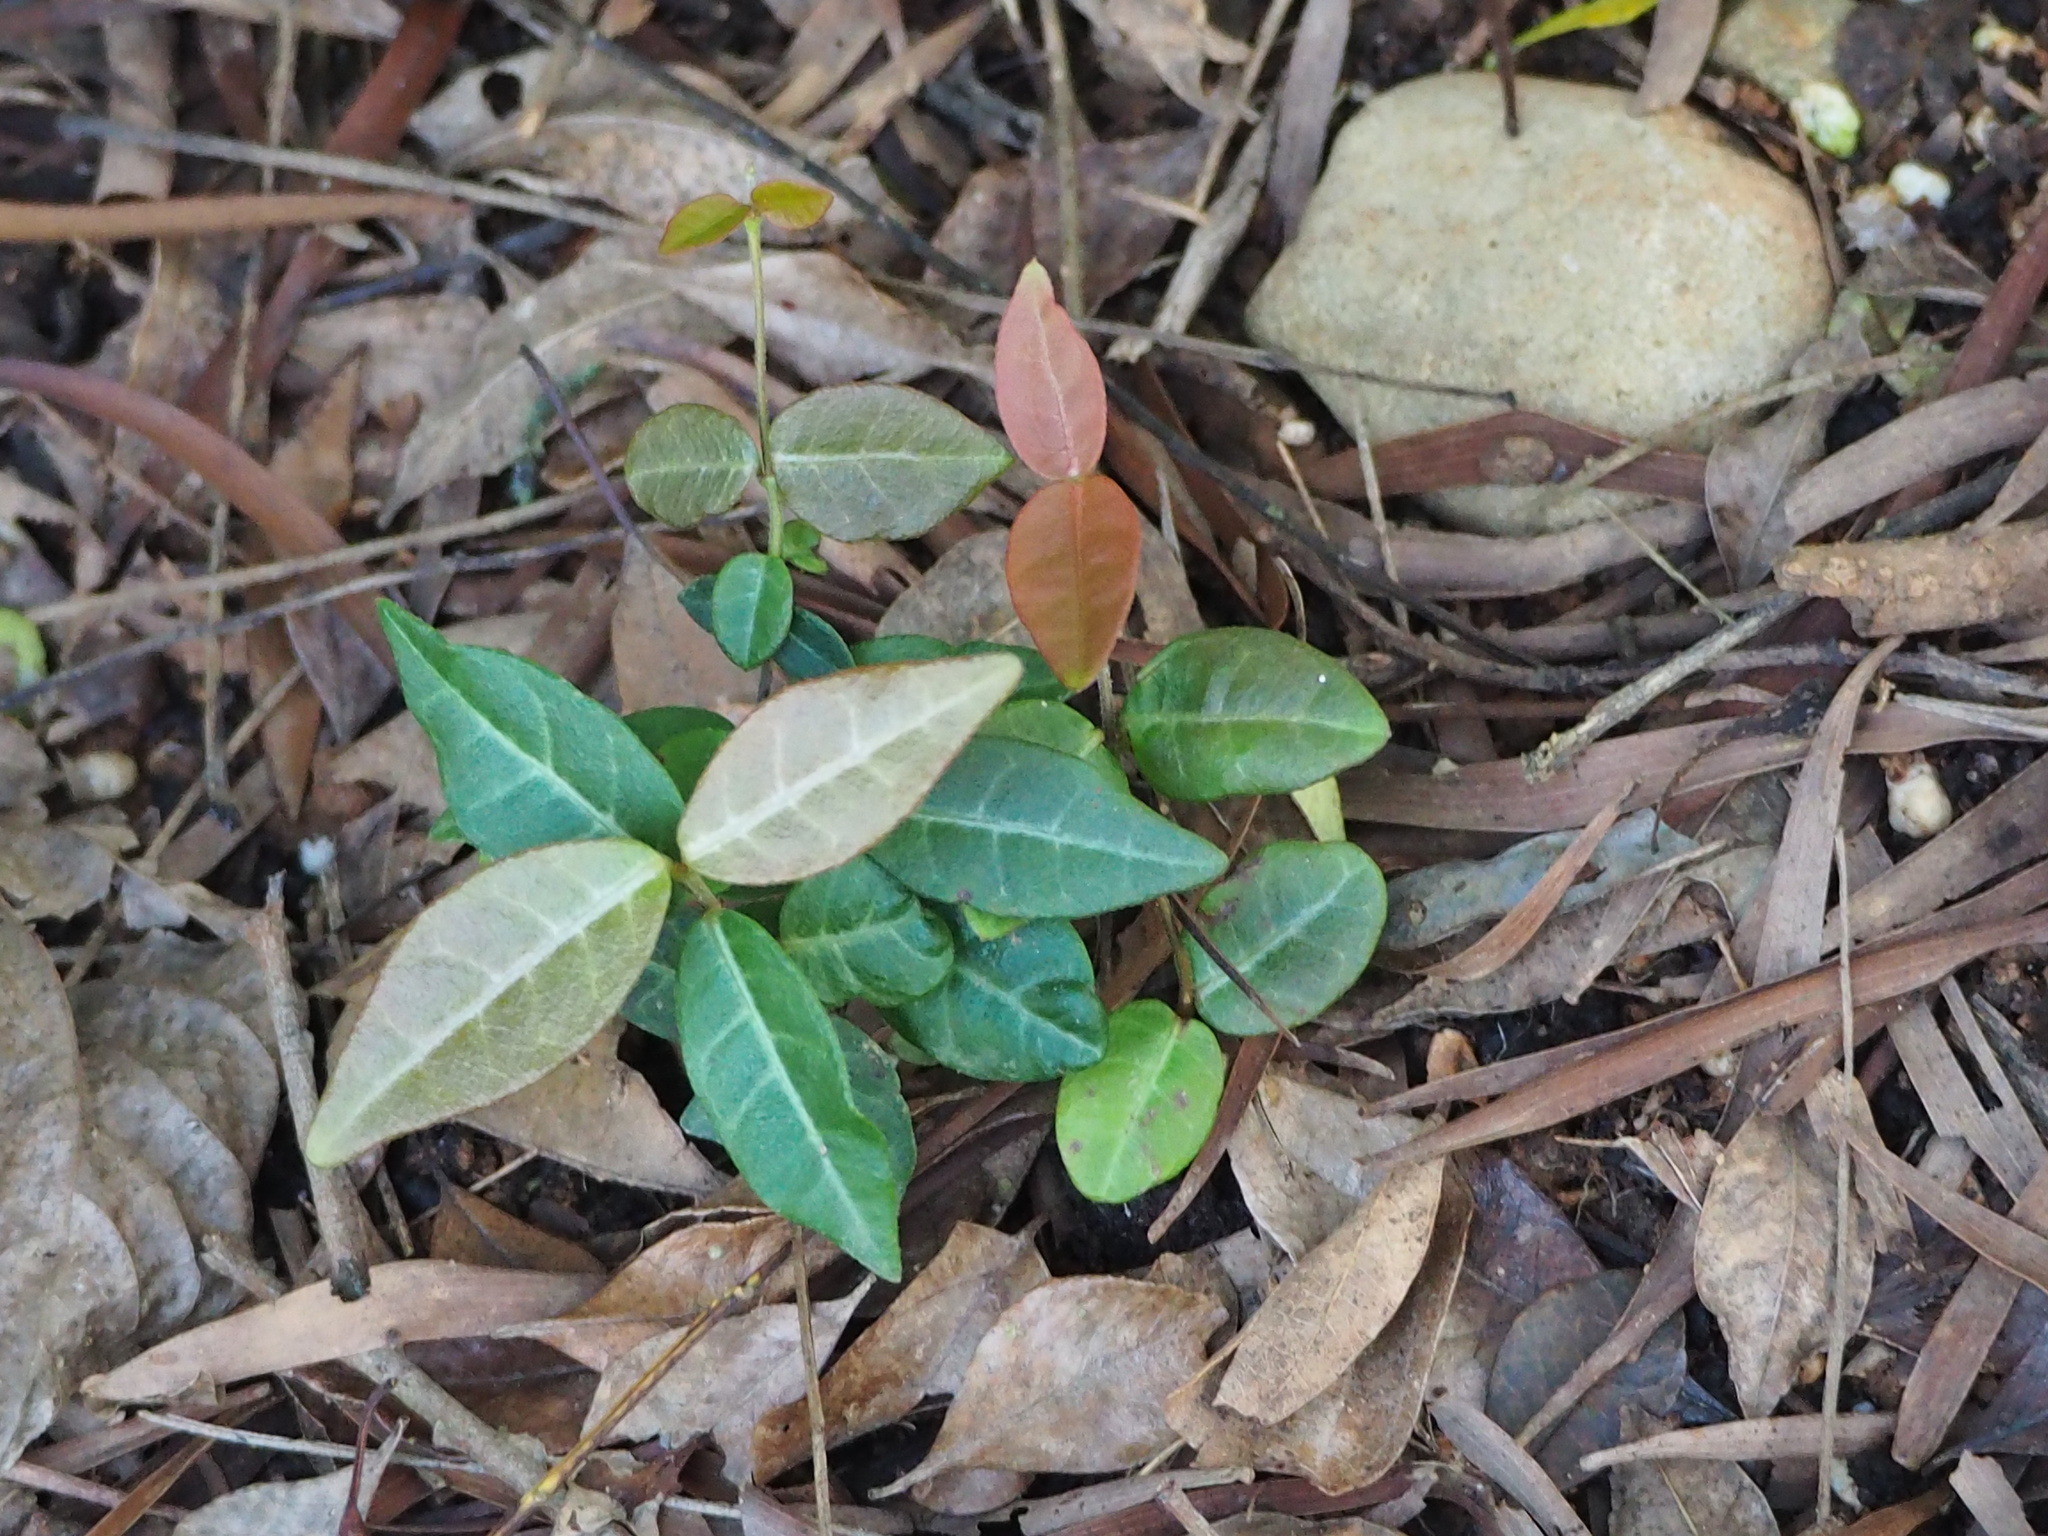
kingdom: Plantae
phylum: Tracheophyta
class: Magnoliopsida
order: Gentianales
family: Apocynaceae
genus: Trachelospermum
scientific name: Trachelospermum jasminoides
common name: Confederate jasmine
